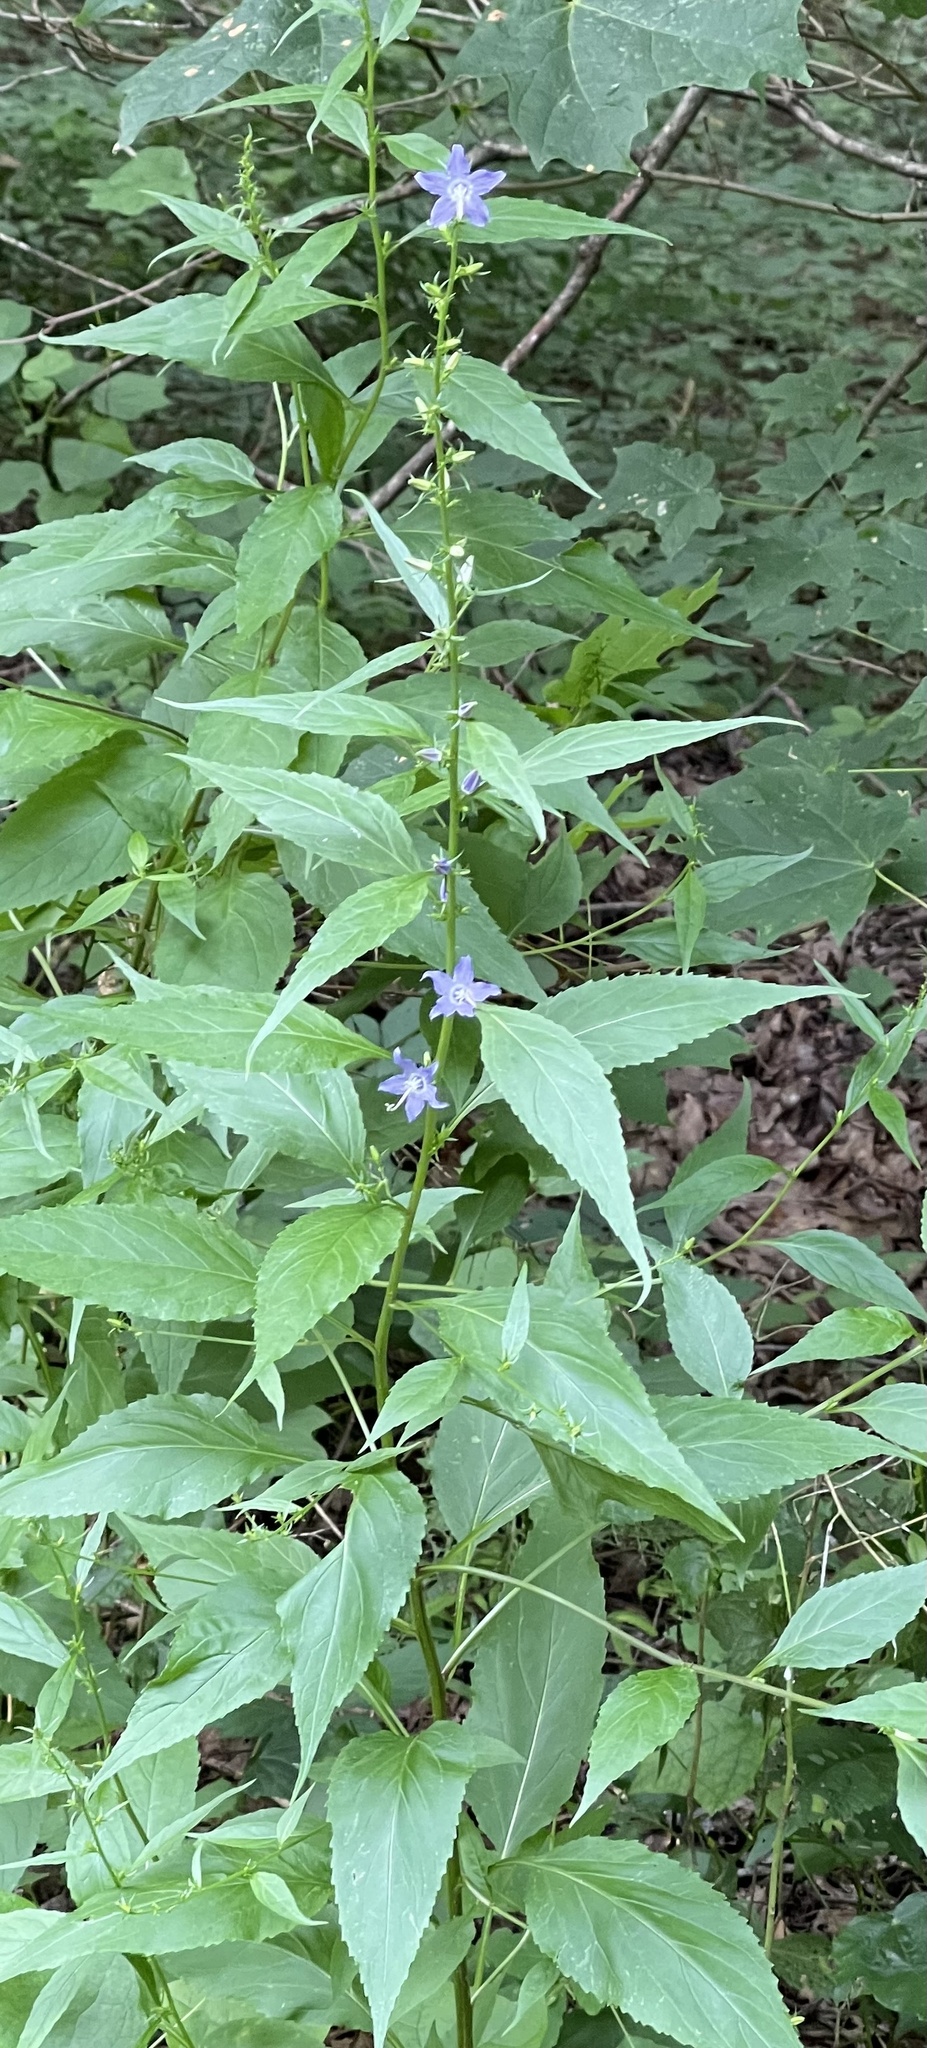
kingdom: Plantae
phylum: Tracheophyta
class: Magnoliopsida
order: Asterales
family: Campanulaceae
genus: Campanulastrum
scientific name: Campanulastrum americanum
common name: American bellflower
